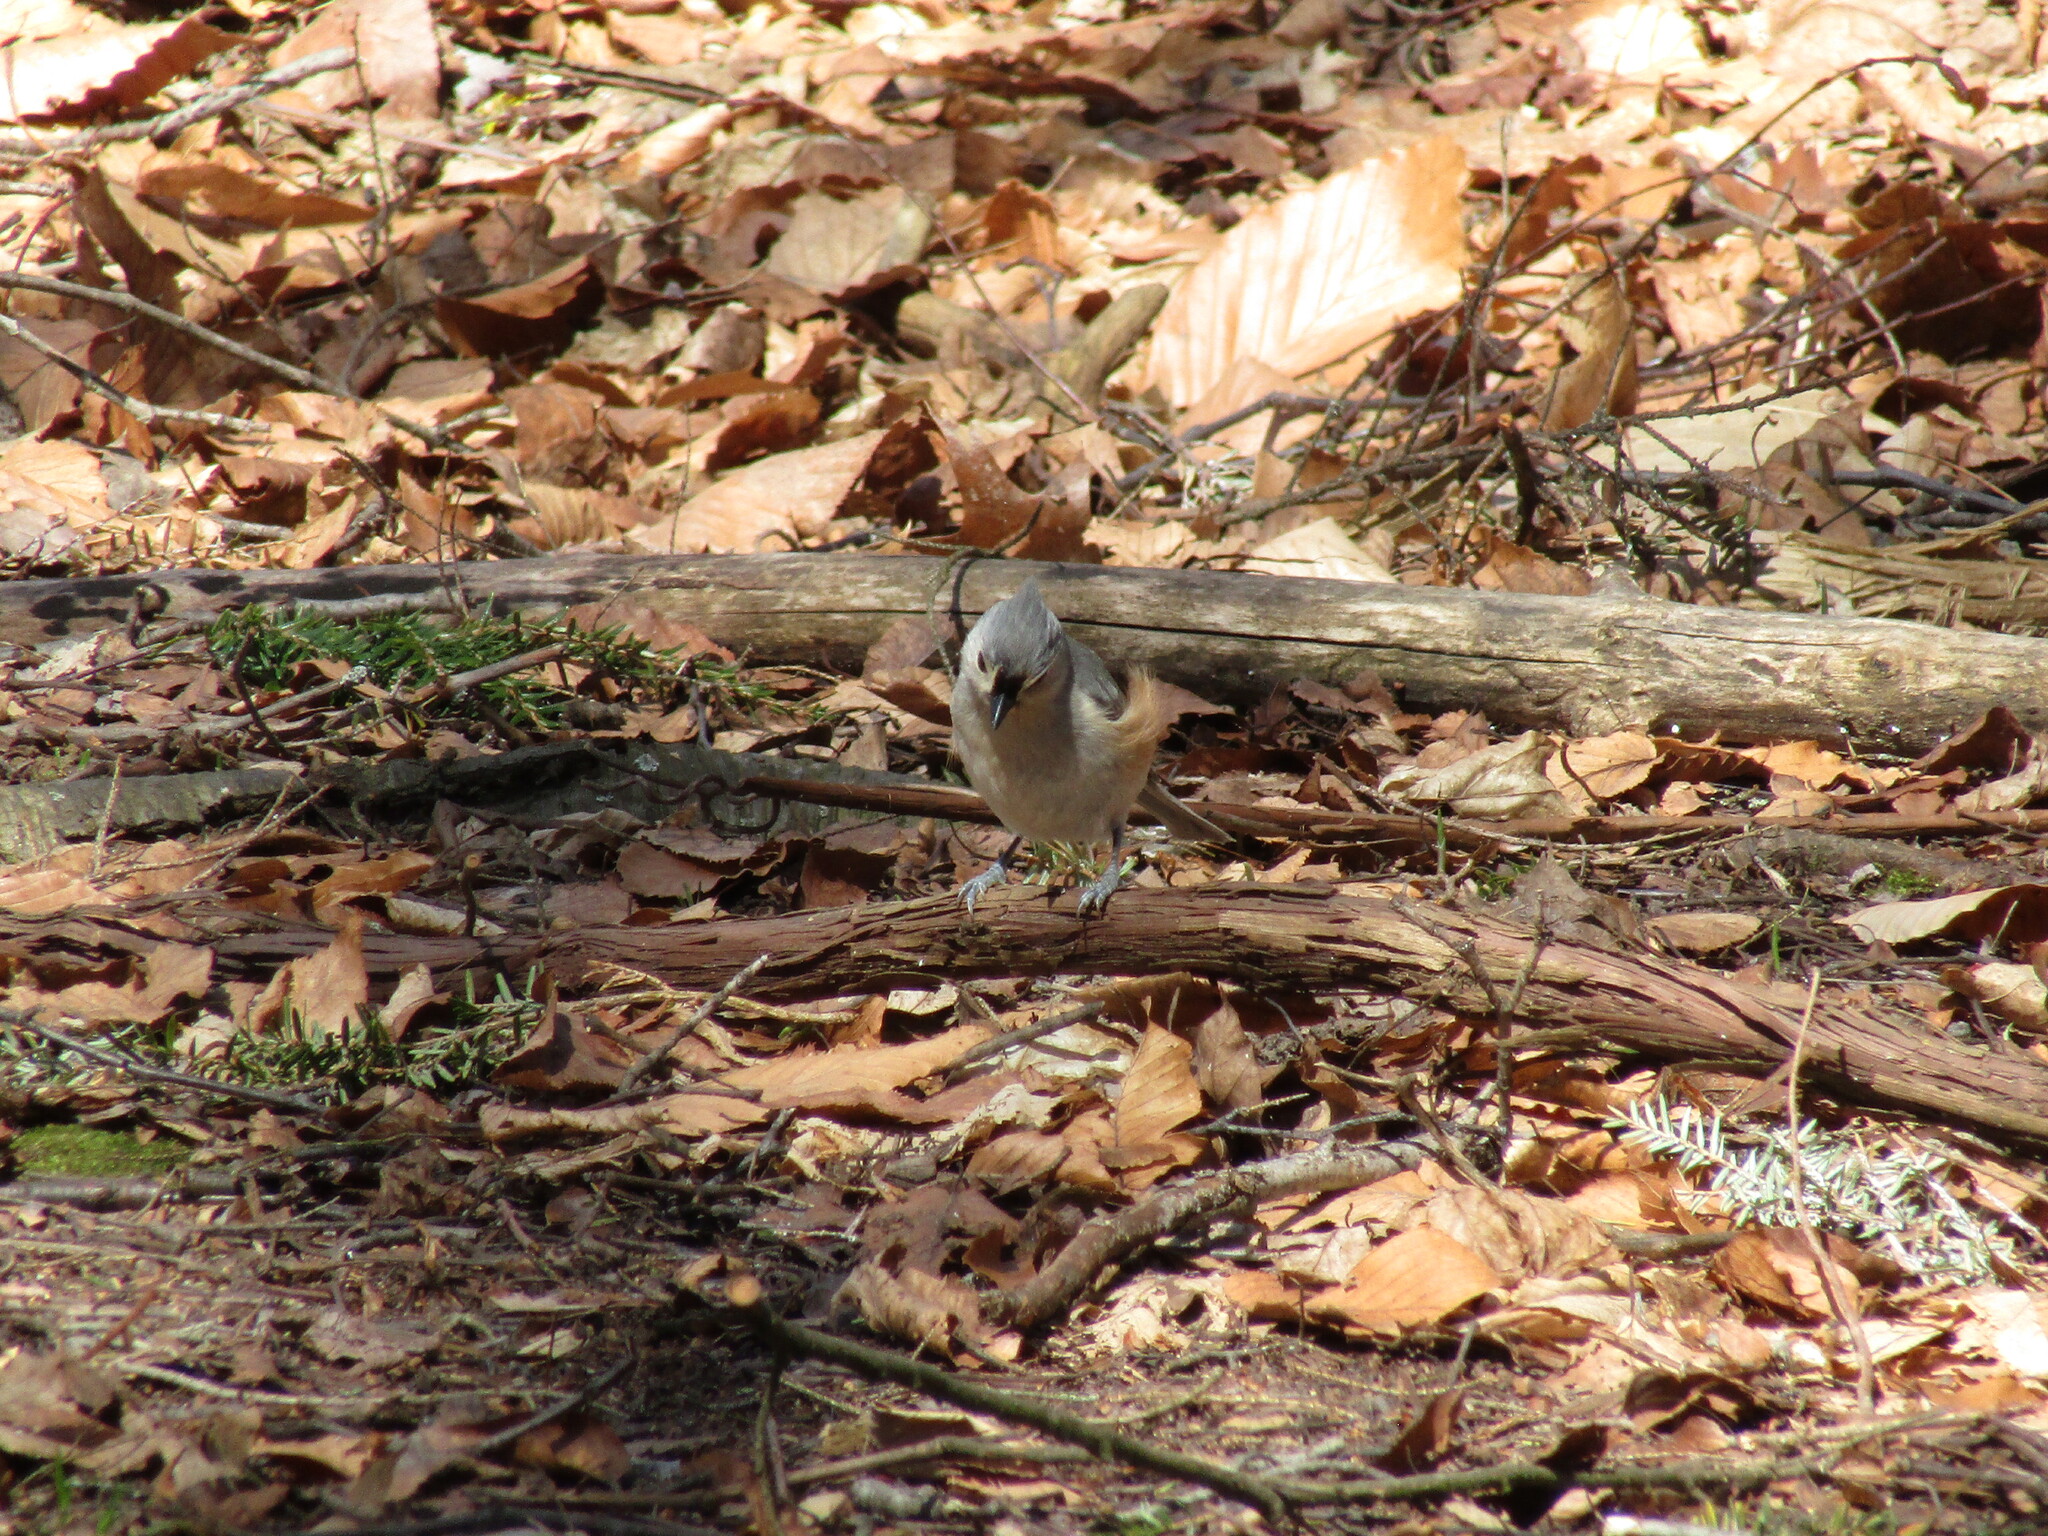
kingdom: Animalia
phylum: Chordata
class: Aves
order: Passeriformes
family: Paridae
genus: Baeolophus
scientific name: Baeolophus bicolor
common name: Tufted titmouse
